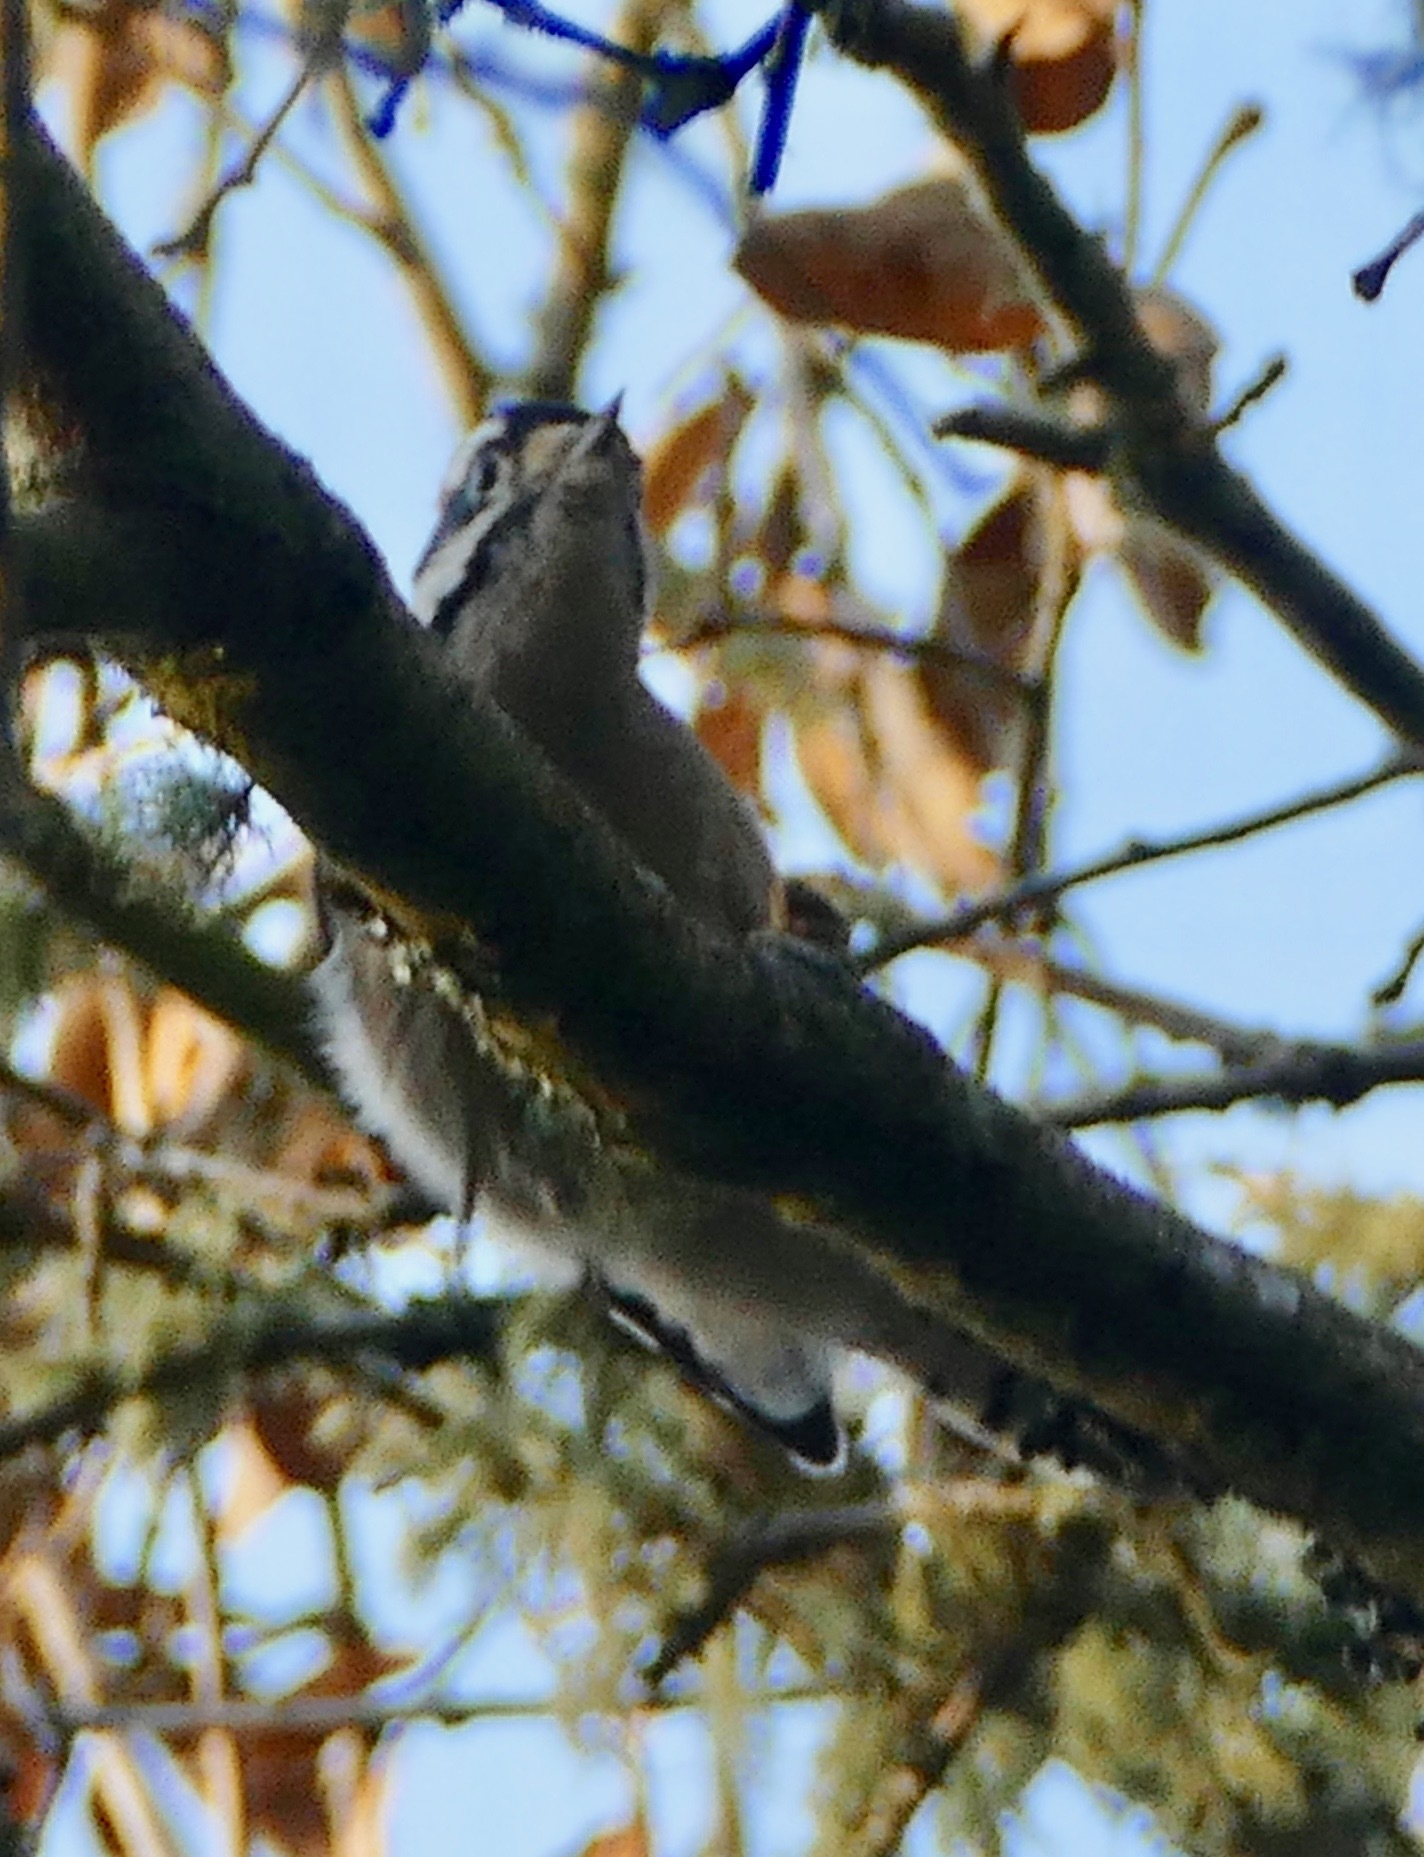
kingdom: Animalia
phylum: Chordata
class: Aves
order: Piciformes
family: Picidae
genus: Dryobates
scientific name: Dryobates pubescens
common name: Downy woodpecker
